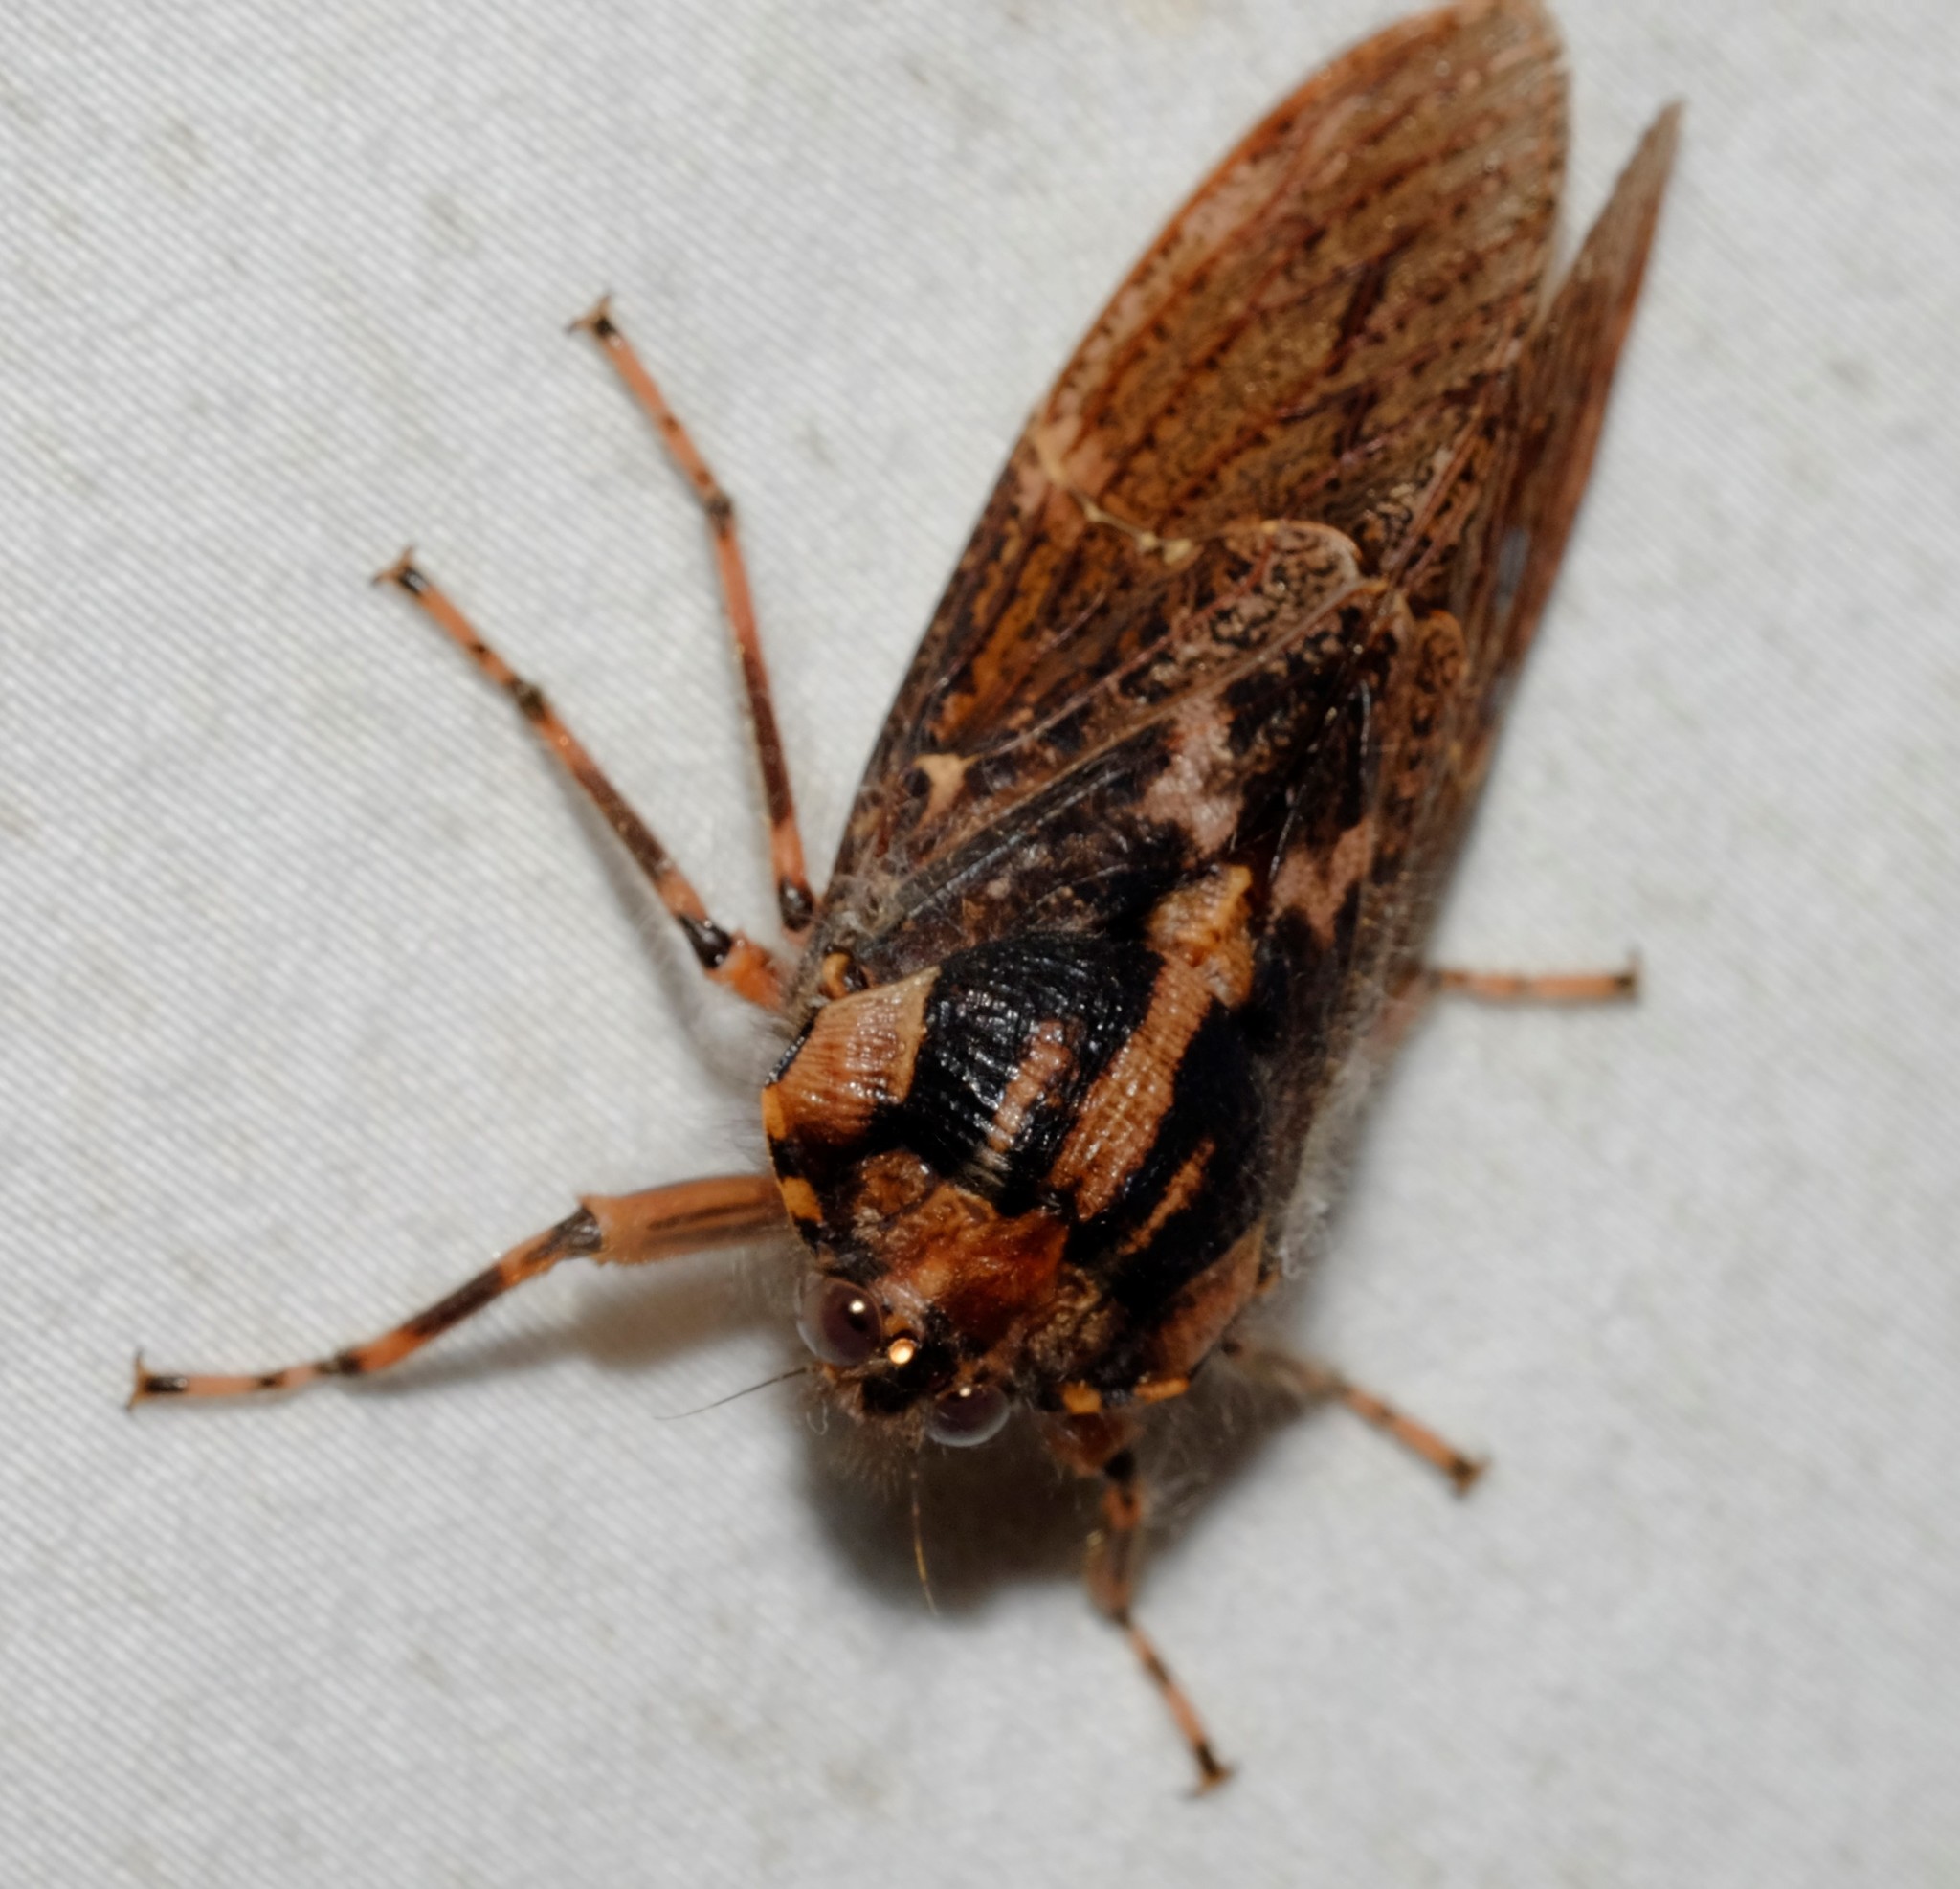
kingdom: Animalia
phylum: Arthropoda
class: Insecta
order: Hemiptera
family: Tettigarctidae
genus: Tettigarcta
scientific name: Tettigarcta crinita
